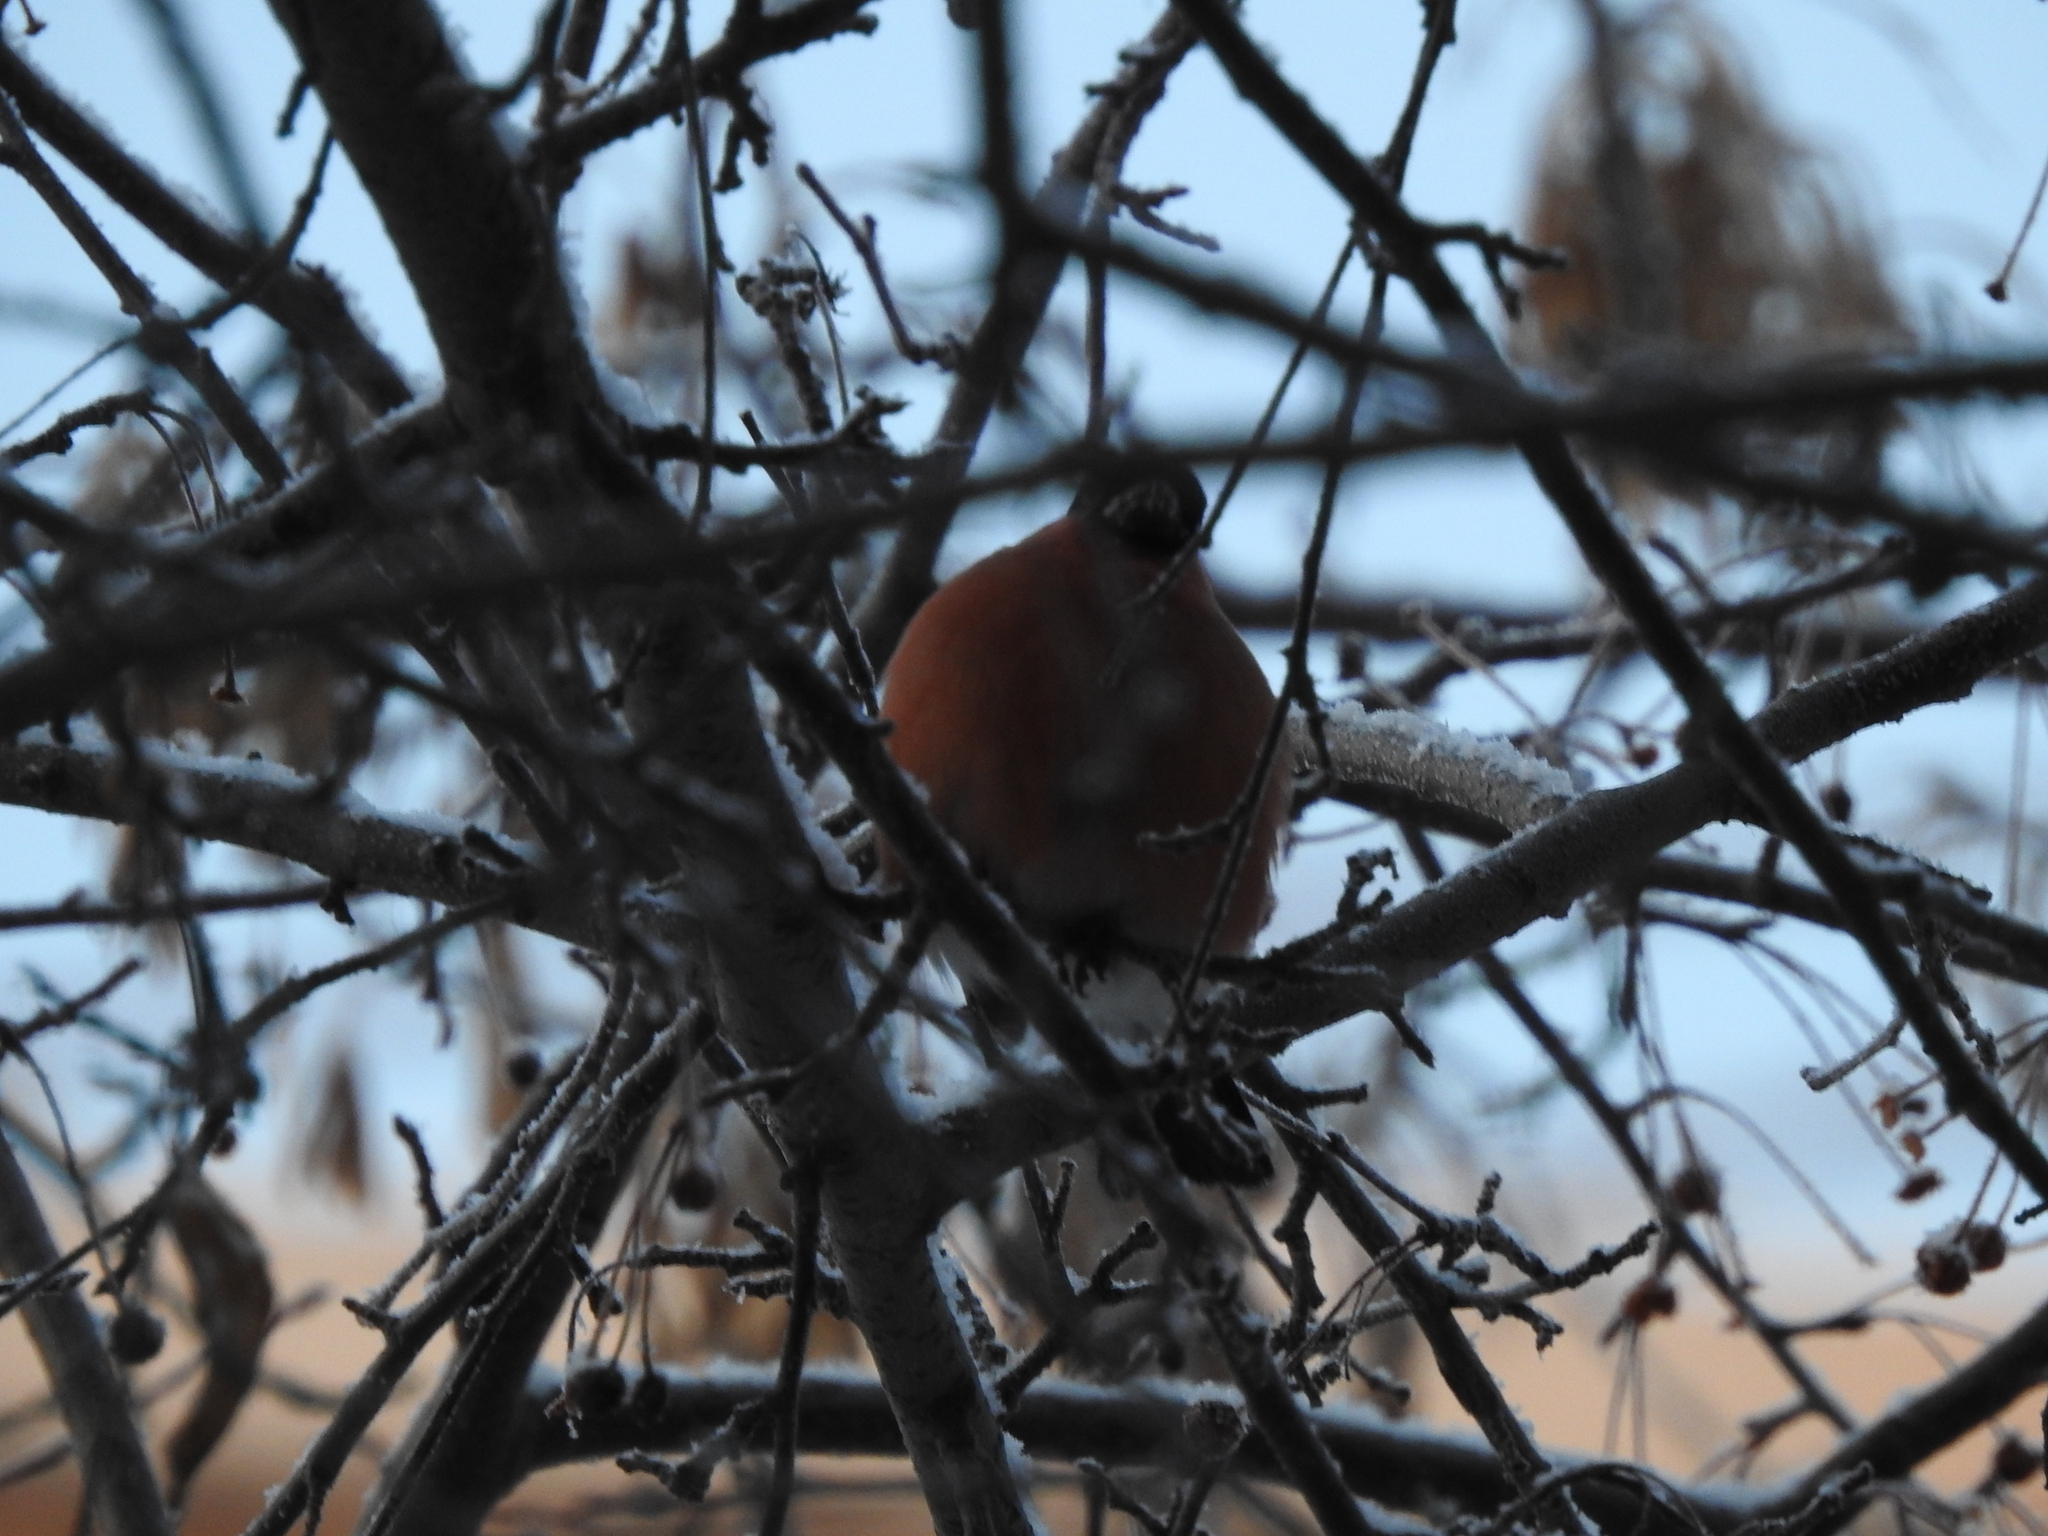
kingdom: Animalia
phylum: Chordata
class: Aves
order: Passeriformes
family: Fringillidae
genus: Pyrrhula
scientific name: Pyrrhula pyrrhula
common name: Eurasian bullfinch
